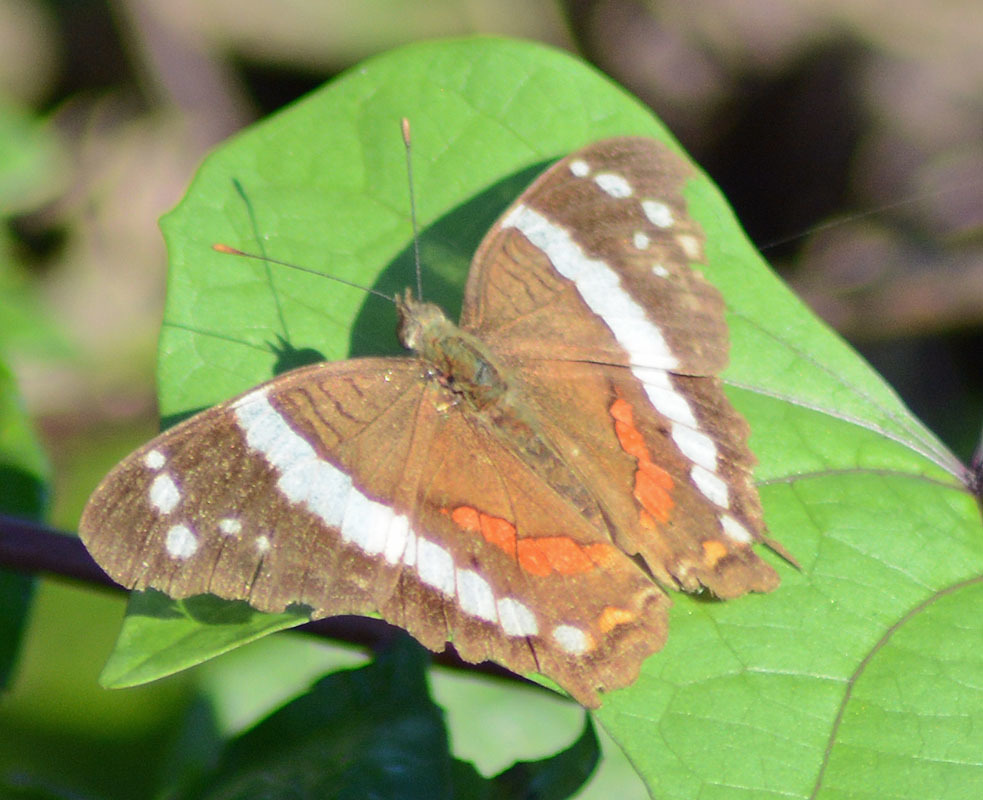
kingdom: Animalia
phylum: Arthropoda
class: Insecta
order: Lepidoptera
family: Nymphalidae
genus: Anartia
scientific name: Anartia fatima
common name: Banded peacock
